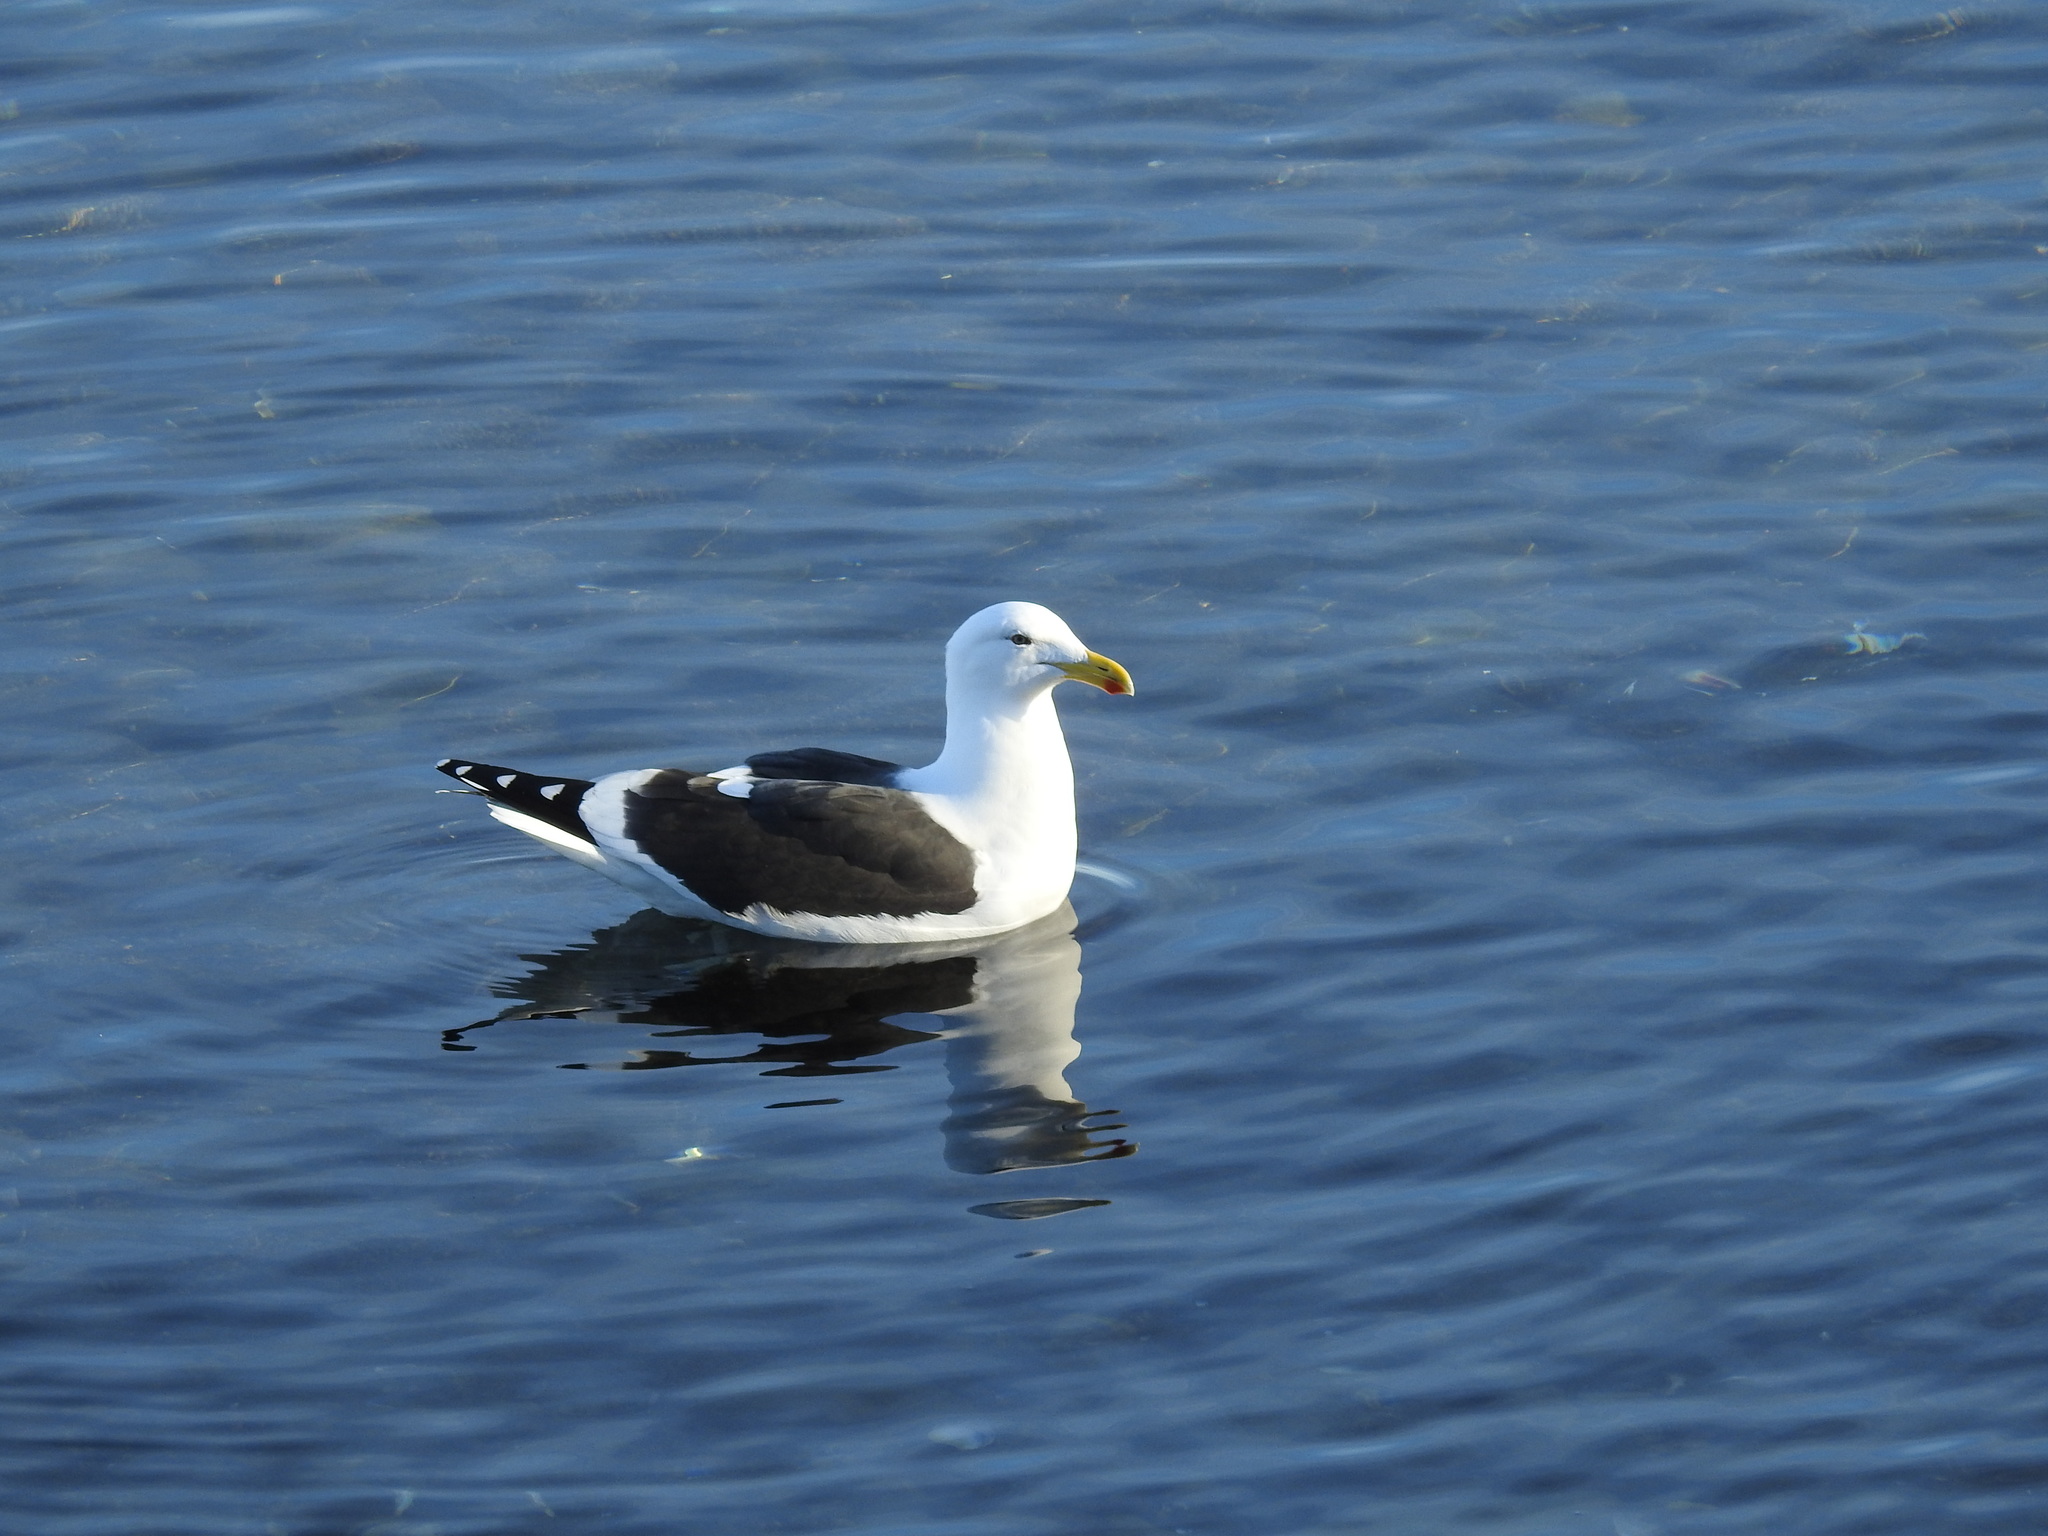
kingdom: Animalia
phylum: Chordata
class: Aves
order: Charadriiformes
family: Laridae
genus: Larus
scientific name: Larus dominicanus
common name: Kelp gull
